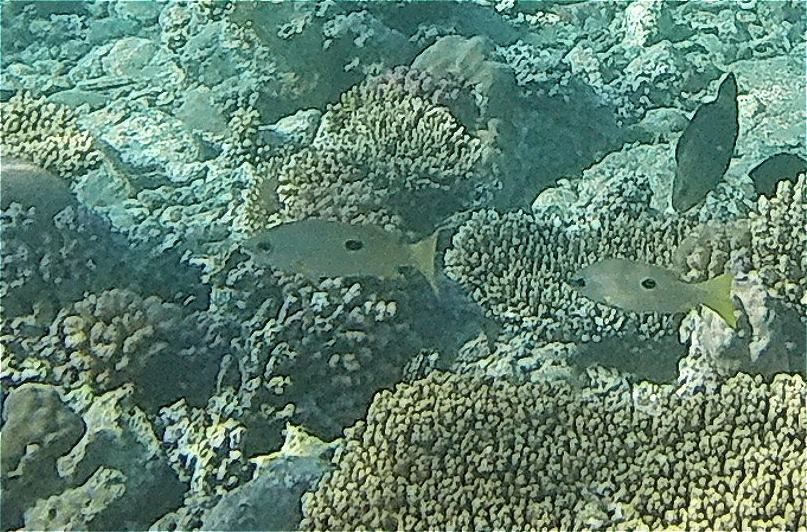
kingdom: Animalia
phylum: Chordata
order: Perciformes
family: Lutjanidae
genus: Lutjanus
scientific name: Lutjanus ehrenbergii
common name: Blackspot snapper
